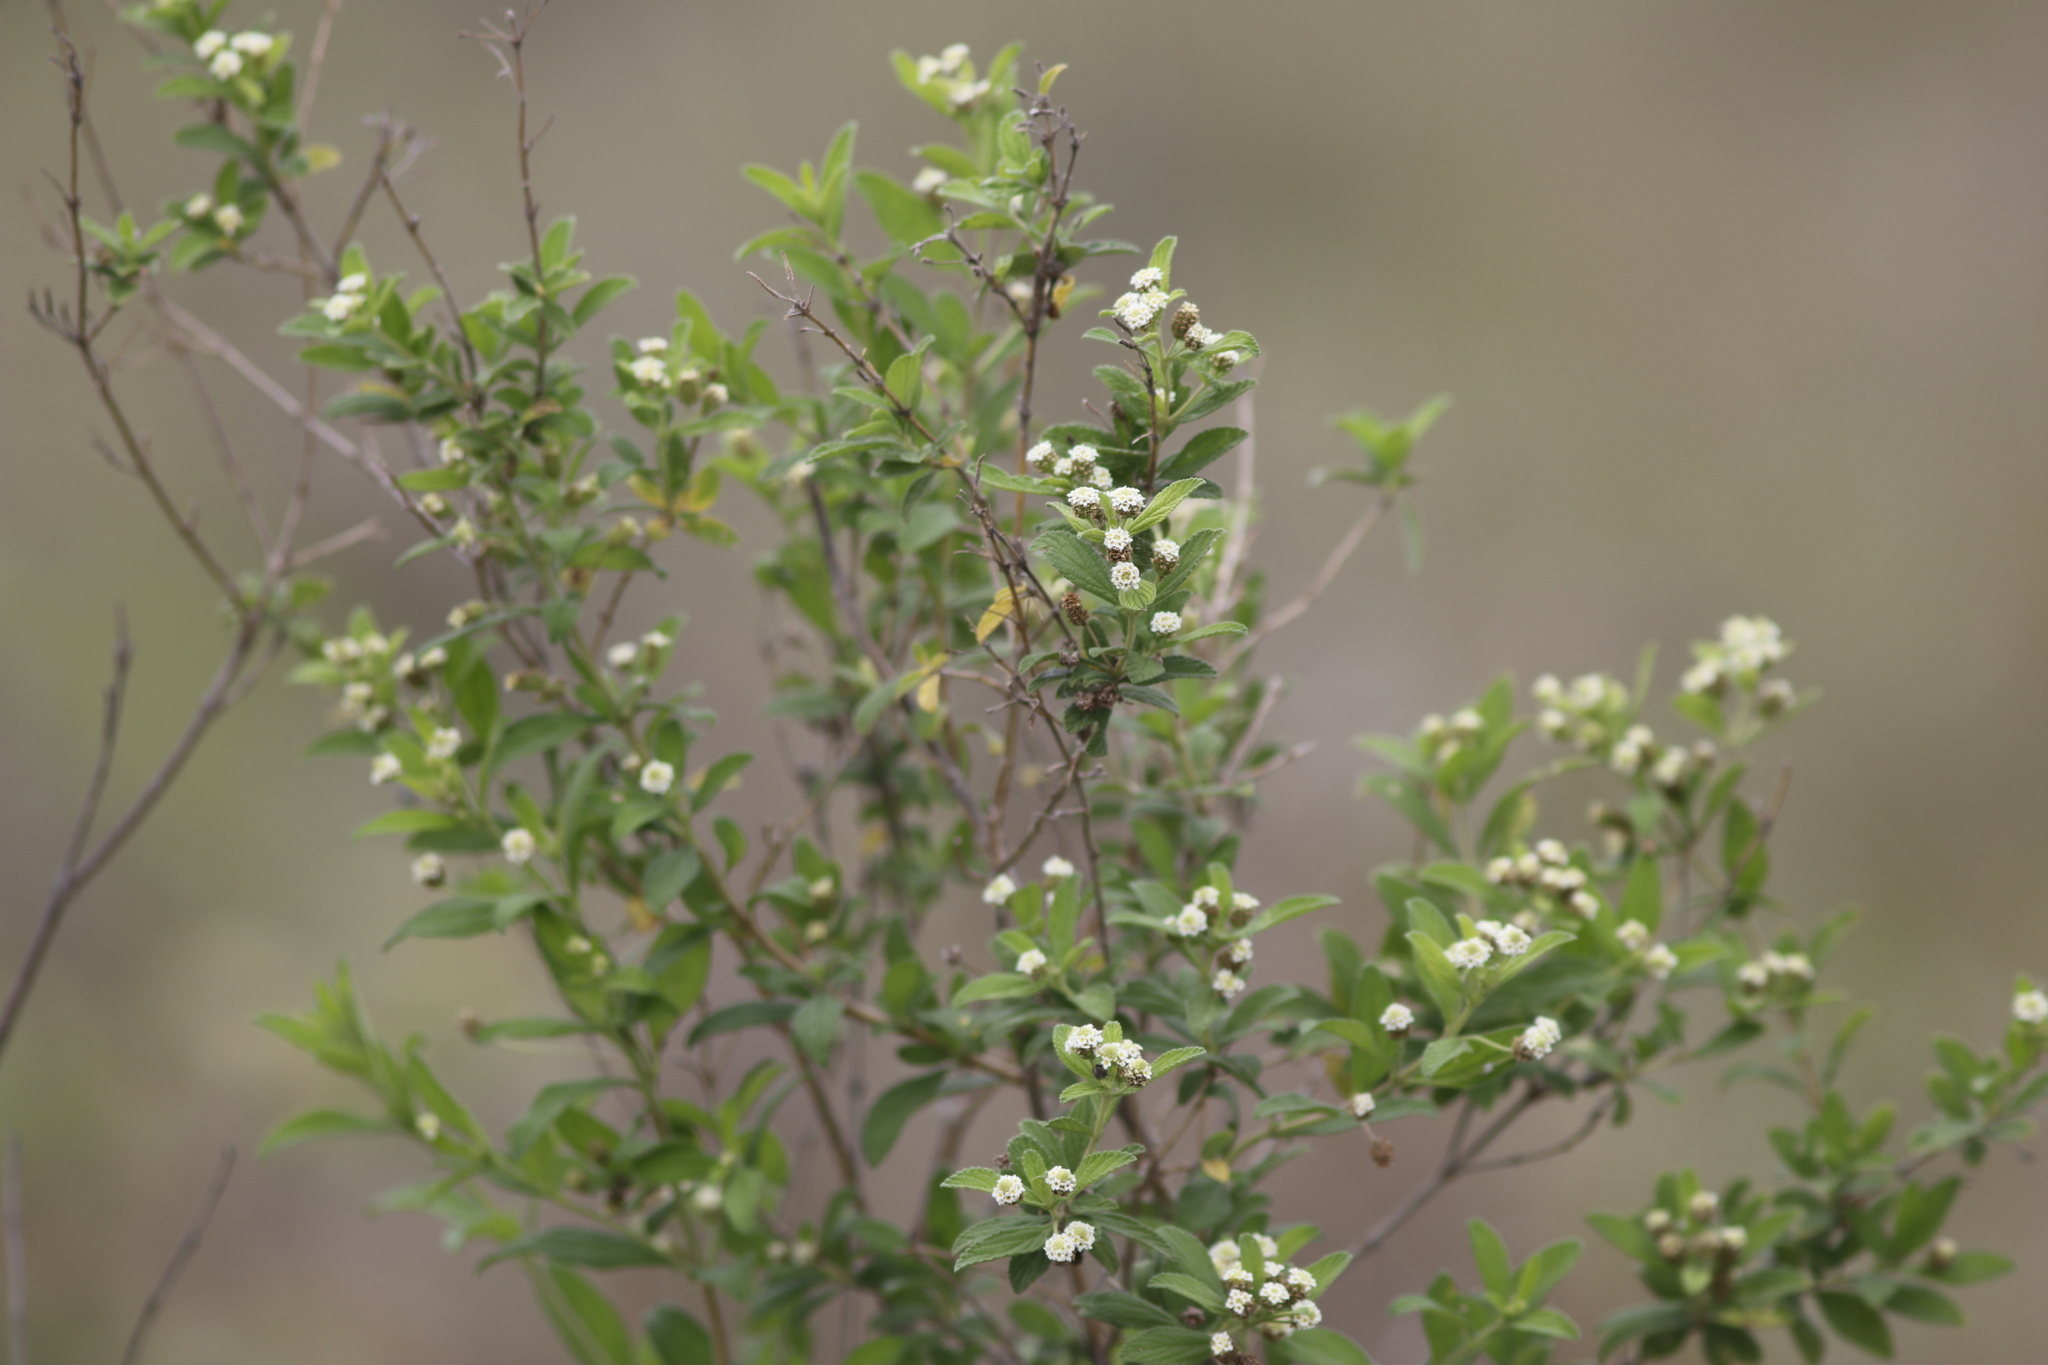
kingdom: Plantae
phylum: Tracheophyta
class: Magnoliopsida
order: Lamiales
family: Verbenaceae
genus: Lippia
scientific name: Lippia javanica
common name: Lemonbush
